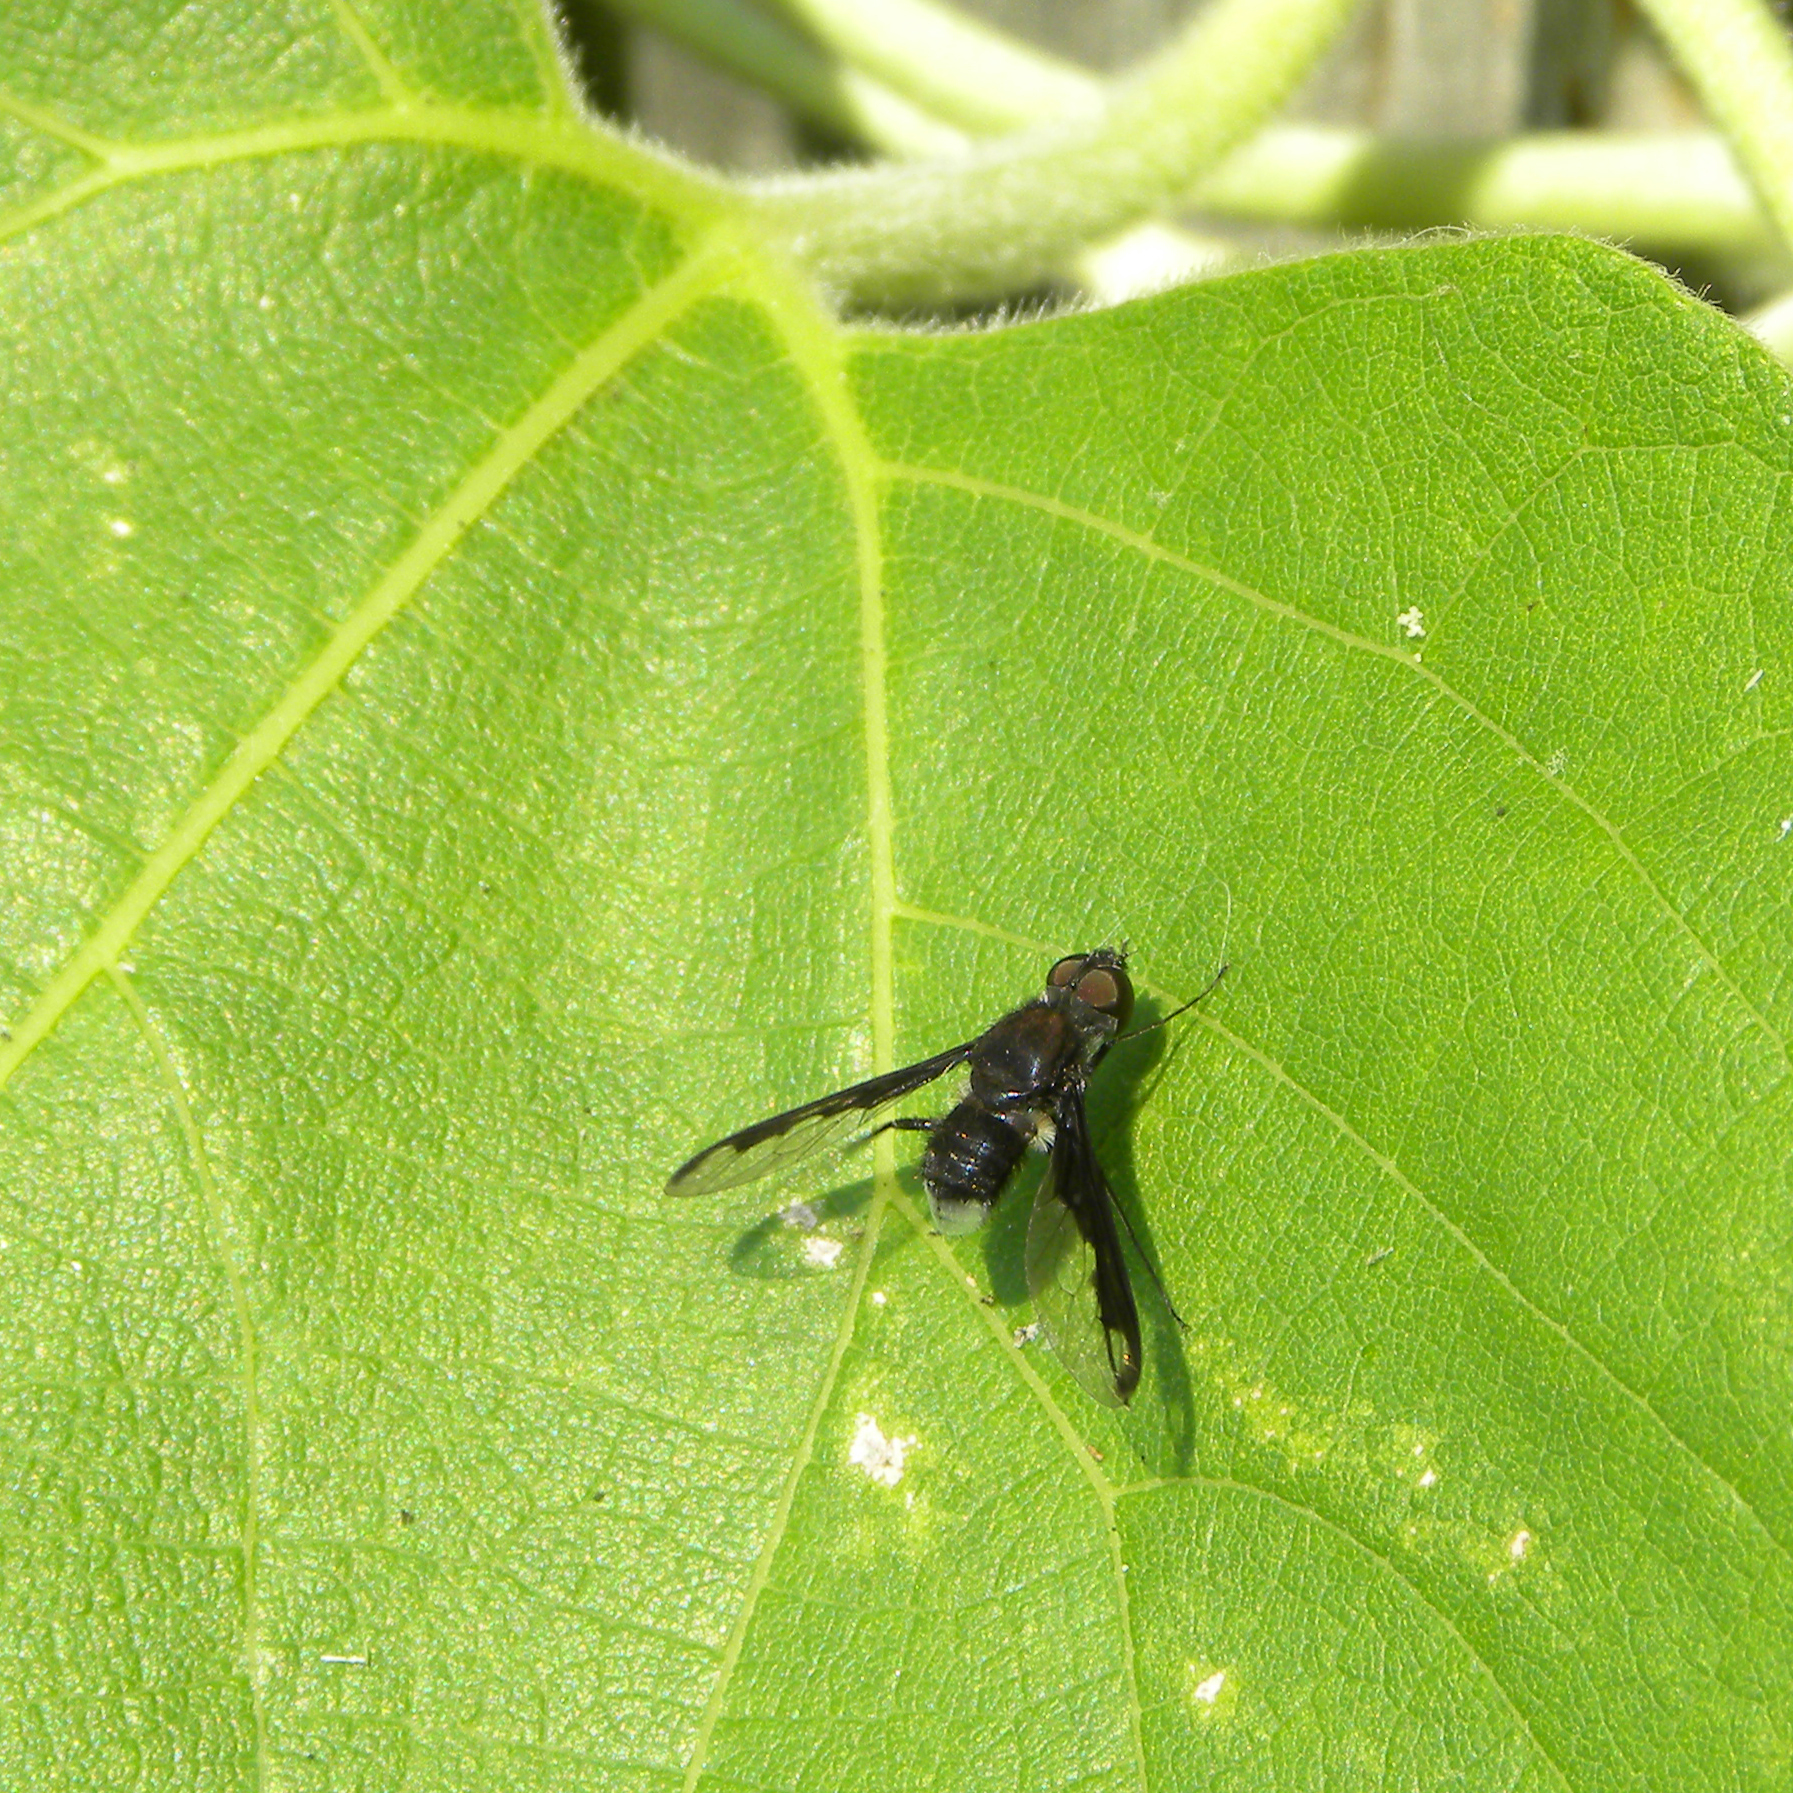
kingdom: Animalia
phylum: Arthropoda
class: Insecta
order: Diptera
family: Bombyliidae
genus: Anthrax
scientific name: Anthrax argyropygus
